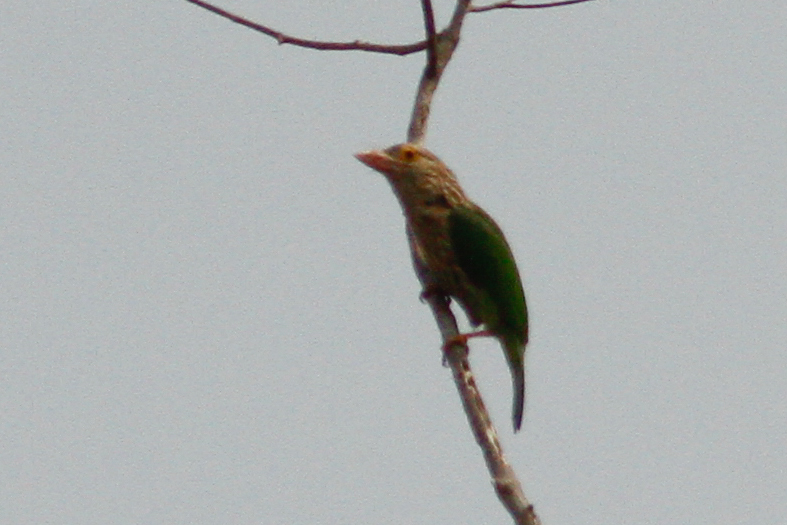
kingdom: Animalia
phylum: Chordata
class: Aves
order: Piciformes
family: Megalaimidae
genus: Psilopogon
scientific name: Psilopogon lineatus
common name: Lineated barbet
